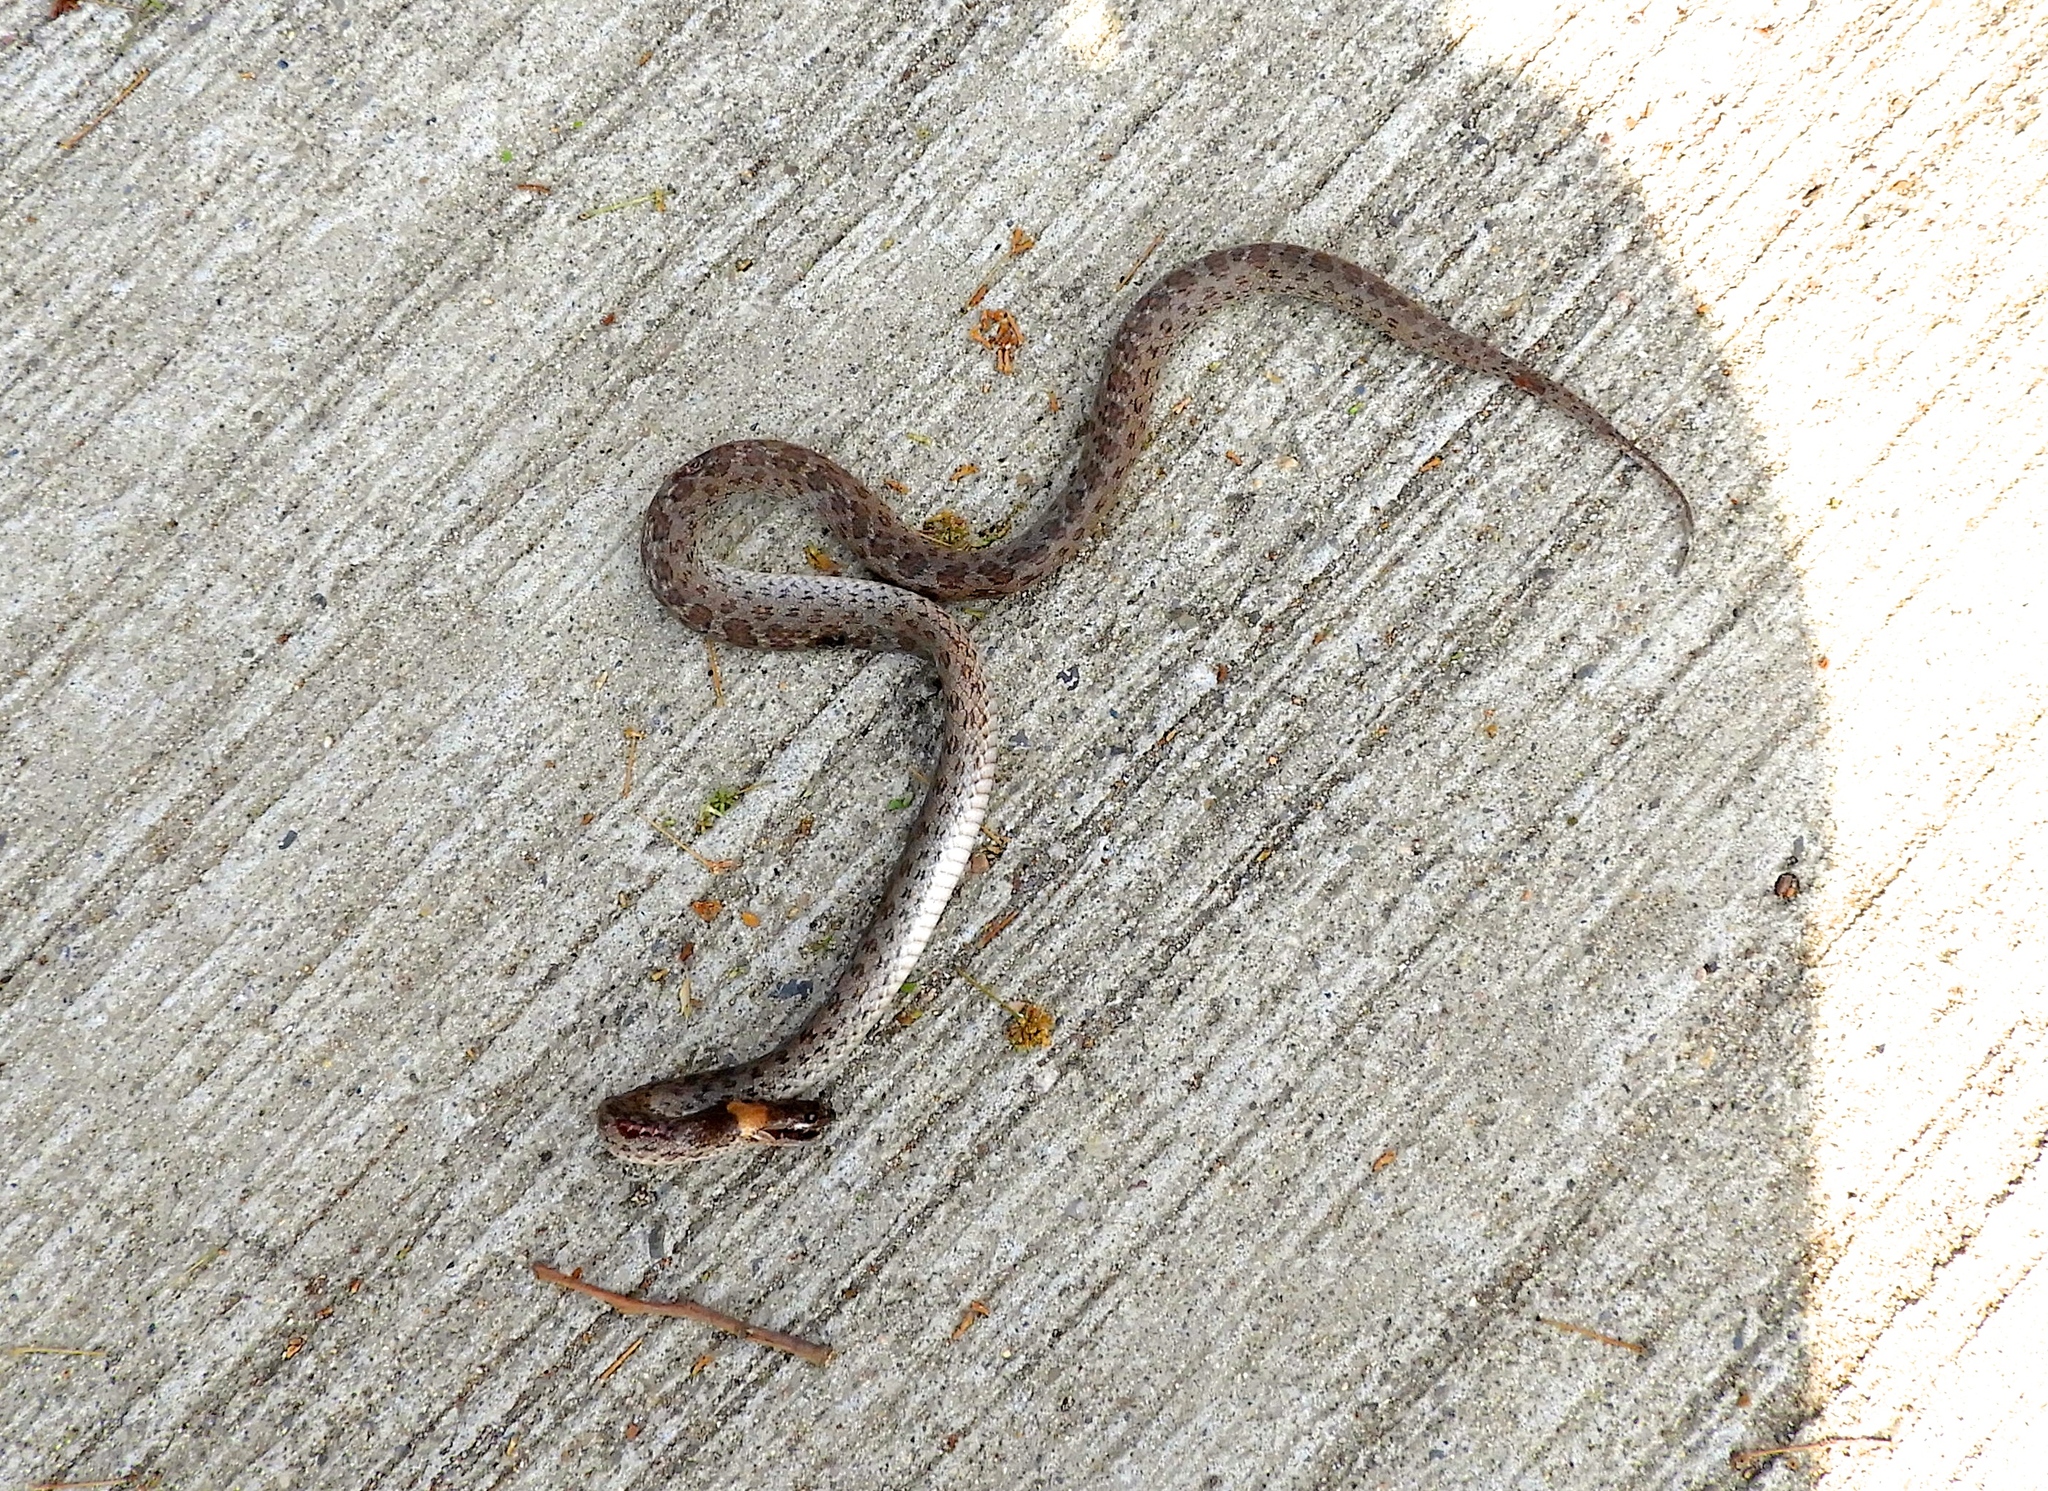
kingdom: Animalia
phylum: Chordata
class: Squamata
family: Colubridae
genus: Hypsiglena
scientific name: Hypsiglena torquata
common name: Night snake
